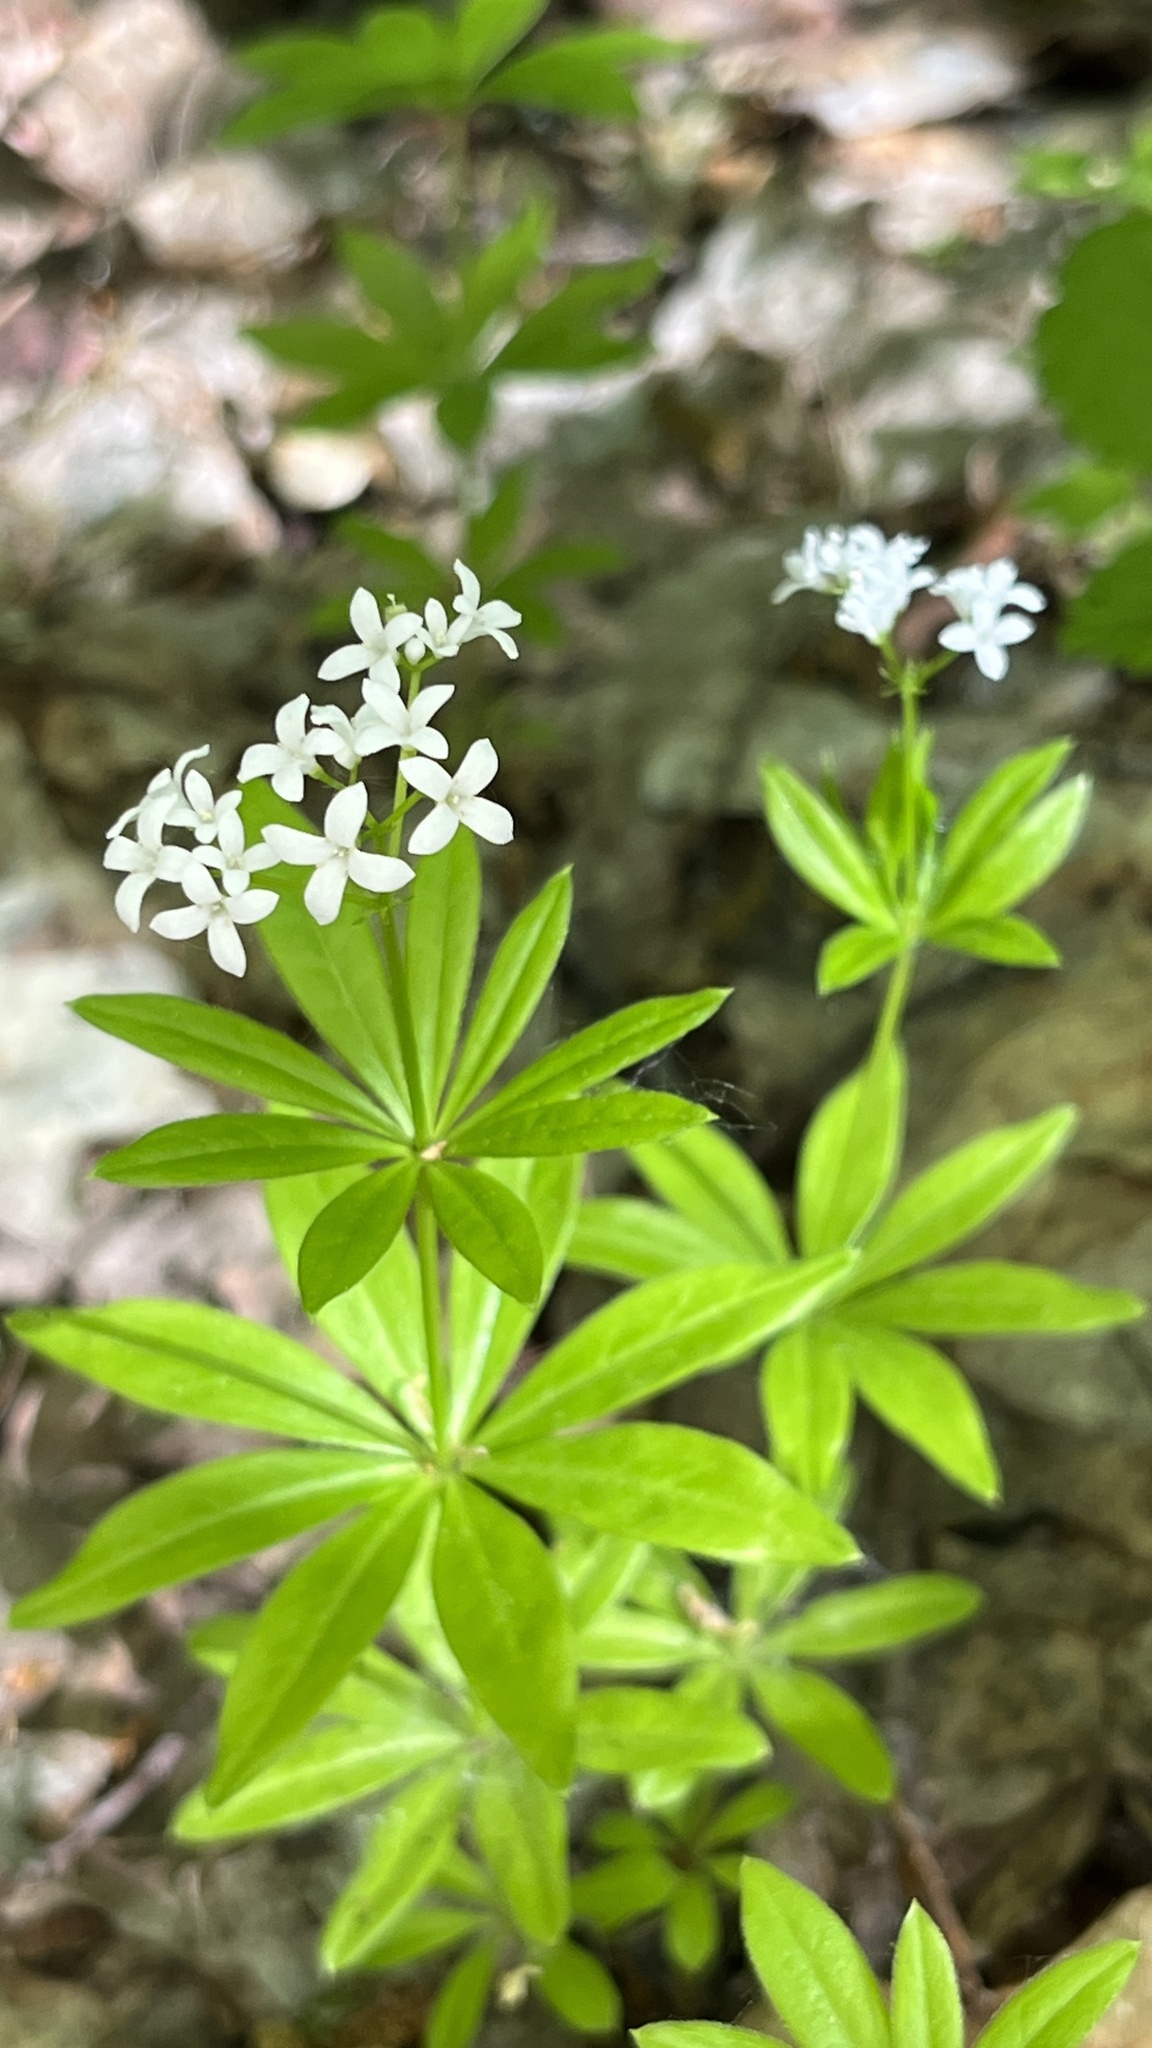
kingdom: Plantae
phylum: Tracheophyta
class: Magnoliopsida
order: Gentianales
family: Rubiaceae
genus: Galium
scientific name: Galium odoratum
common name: Sweet woodruff
